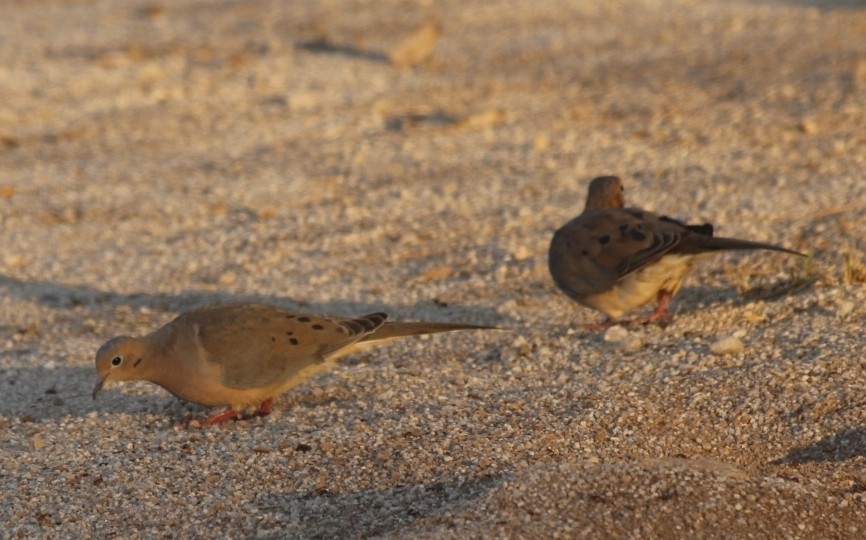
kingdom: Animalia
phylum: Chordata
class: Aves
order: Columbiformes
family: Columbidae
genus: Zenaida
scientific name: Zenaida macroura
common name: Mourning dove
